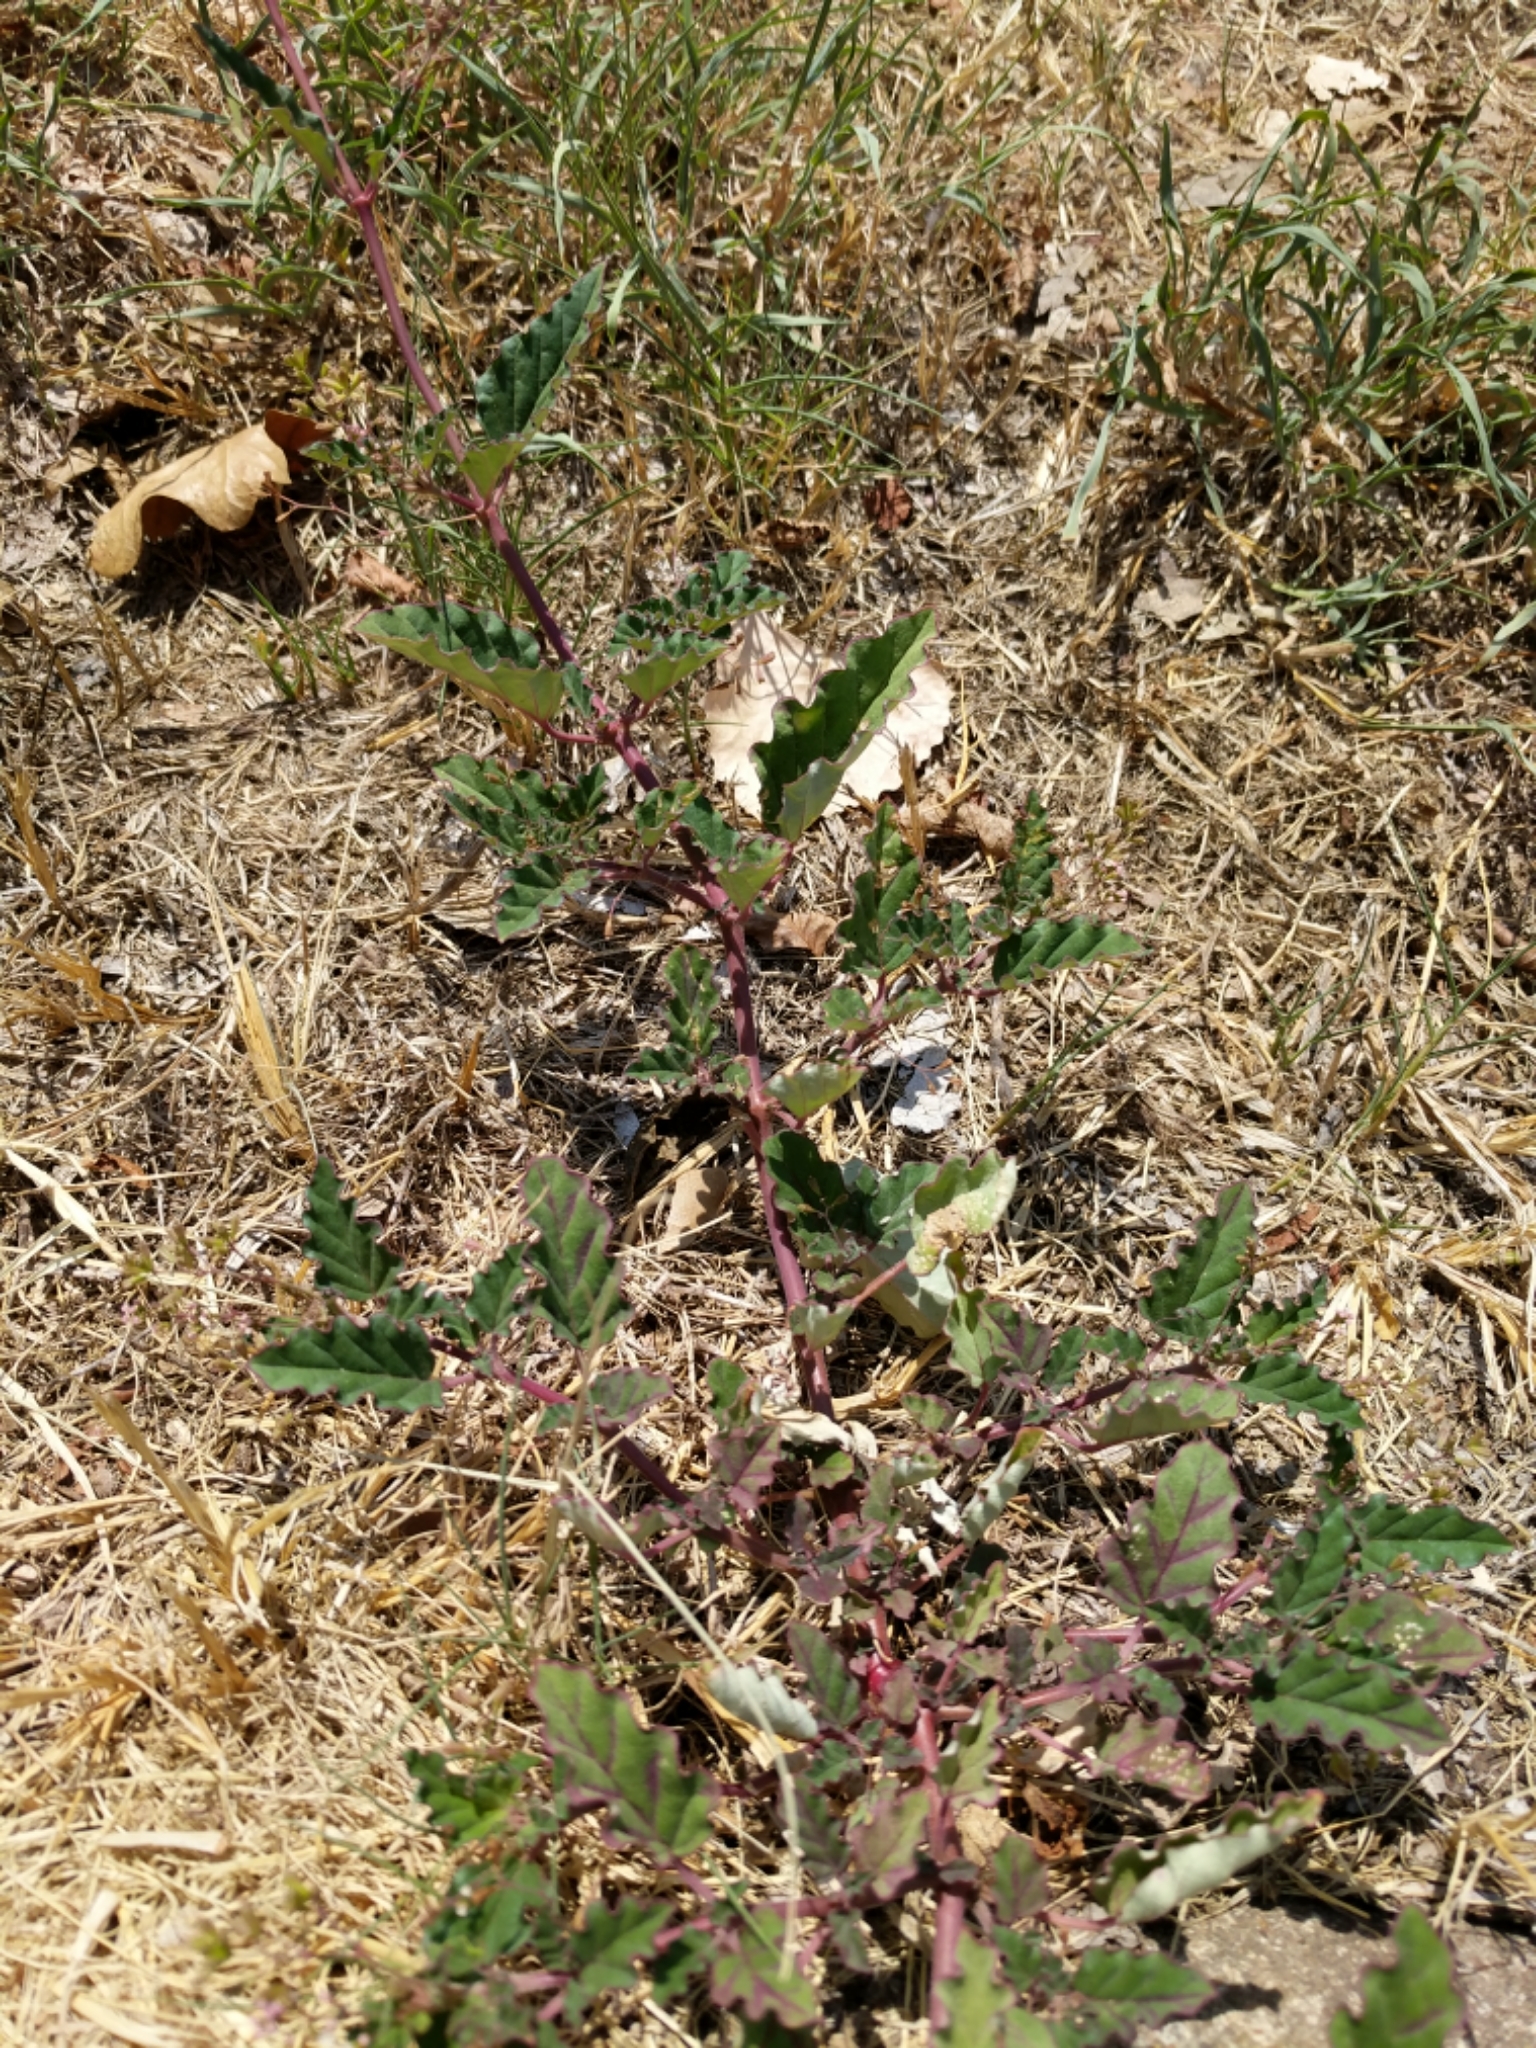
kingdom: Plantae
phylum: Tracheophyta
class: Magnoliopsida
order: Caryophyllales
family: Nyctaginaceae
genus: Boerhavia
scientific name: Boerhavia erecta
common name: Erect spiderling
